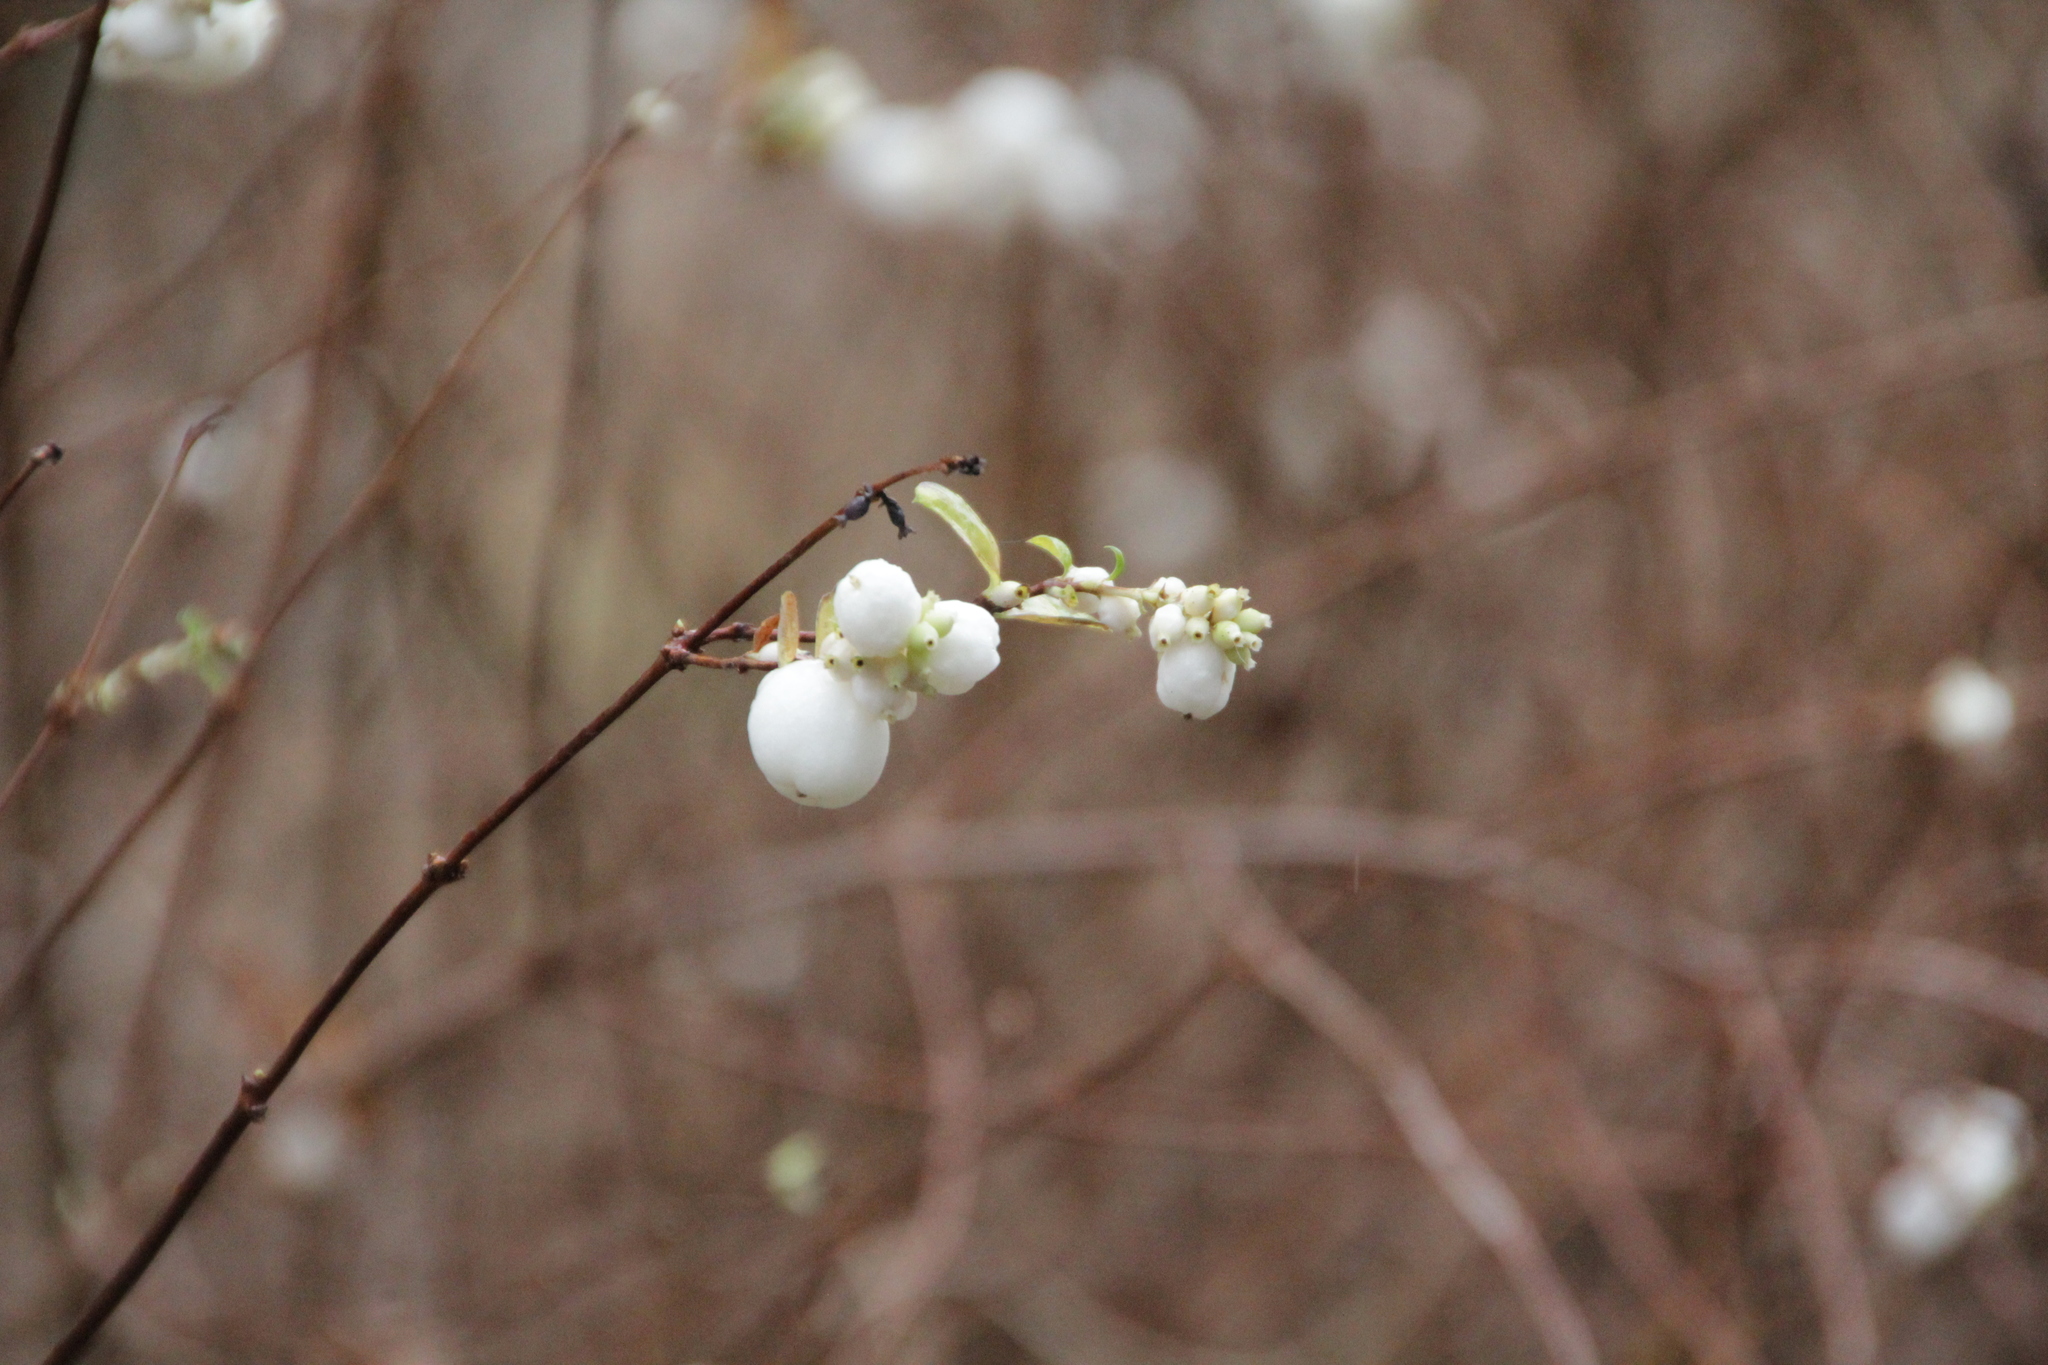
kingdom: Plantae
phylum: Tracheophyta
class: Magnoliopsida
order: Dipsacales
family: Caprifoliaceae
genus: Symphoricarpos
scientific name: Symphoricarpos albus
